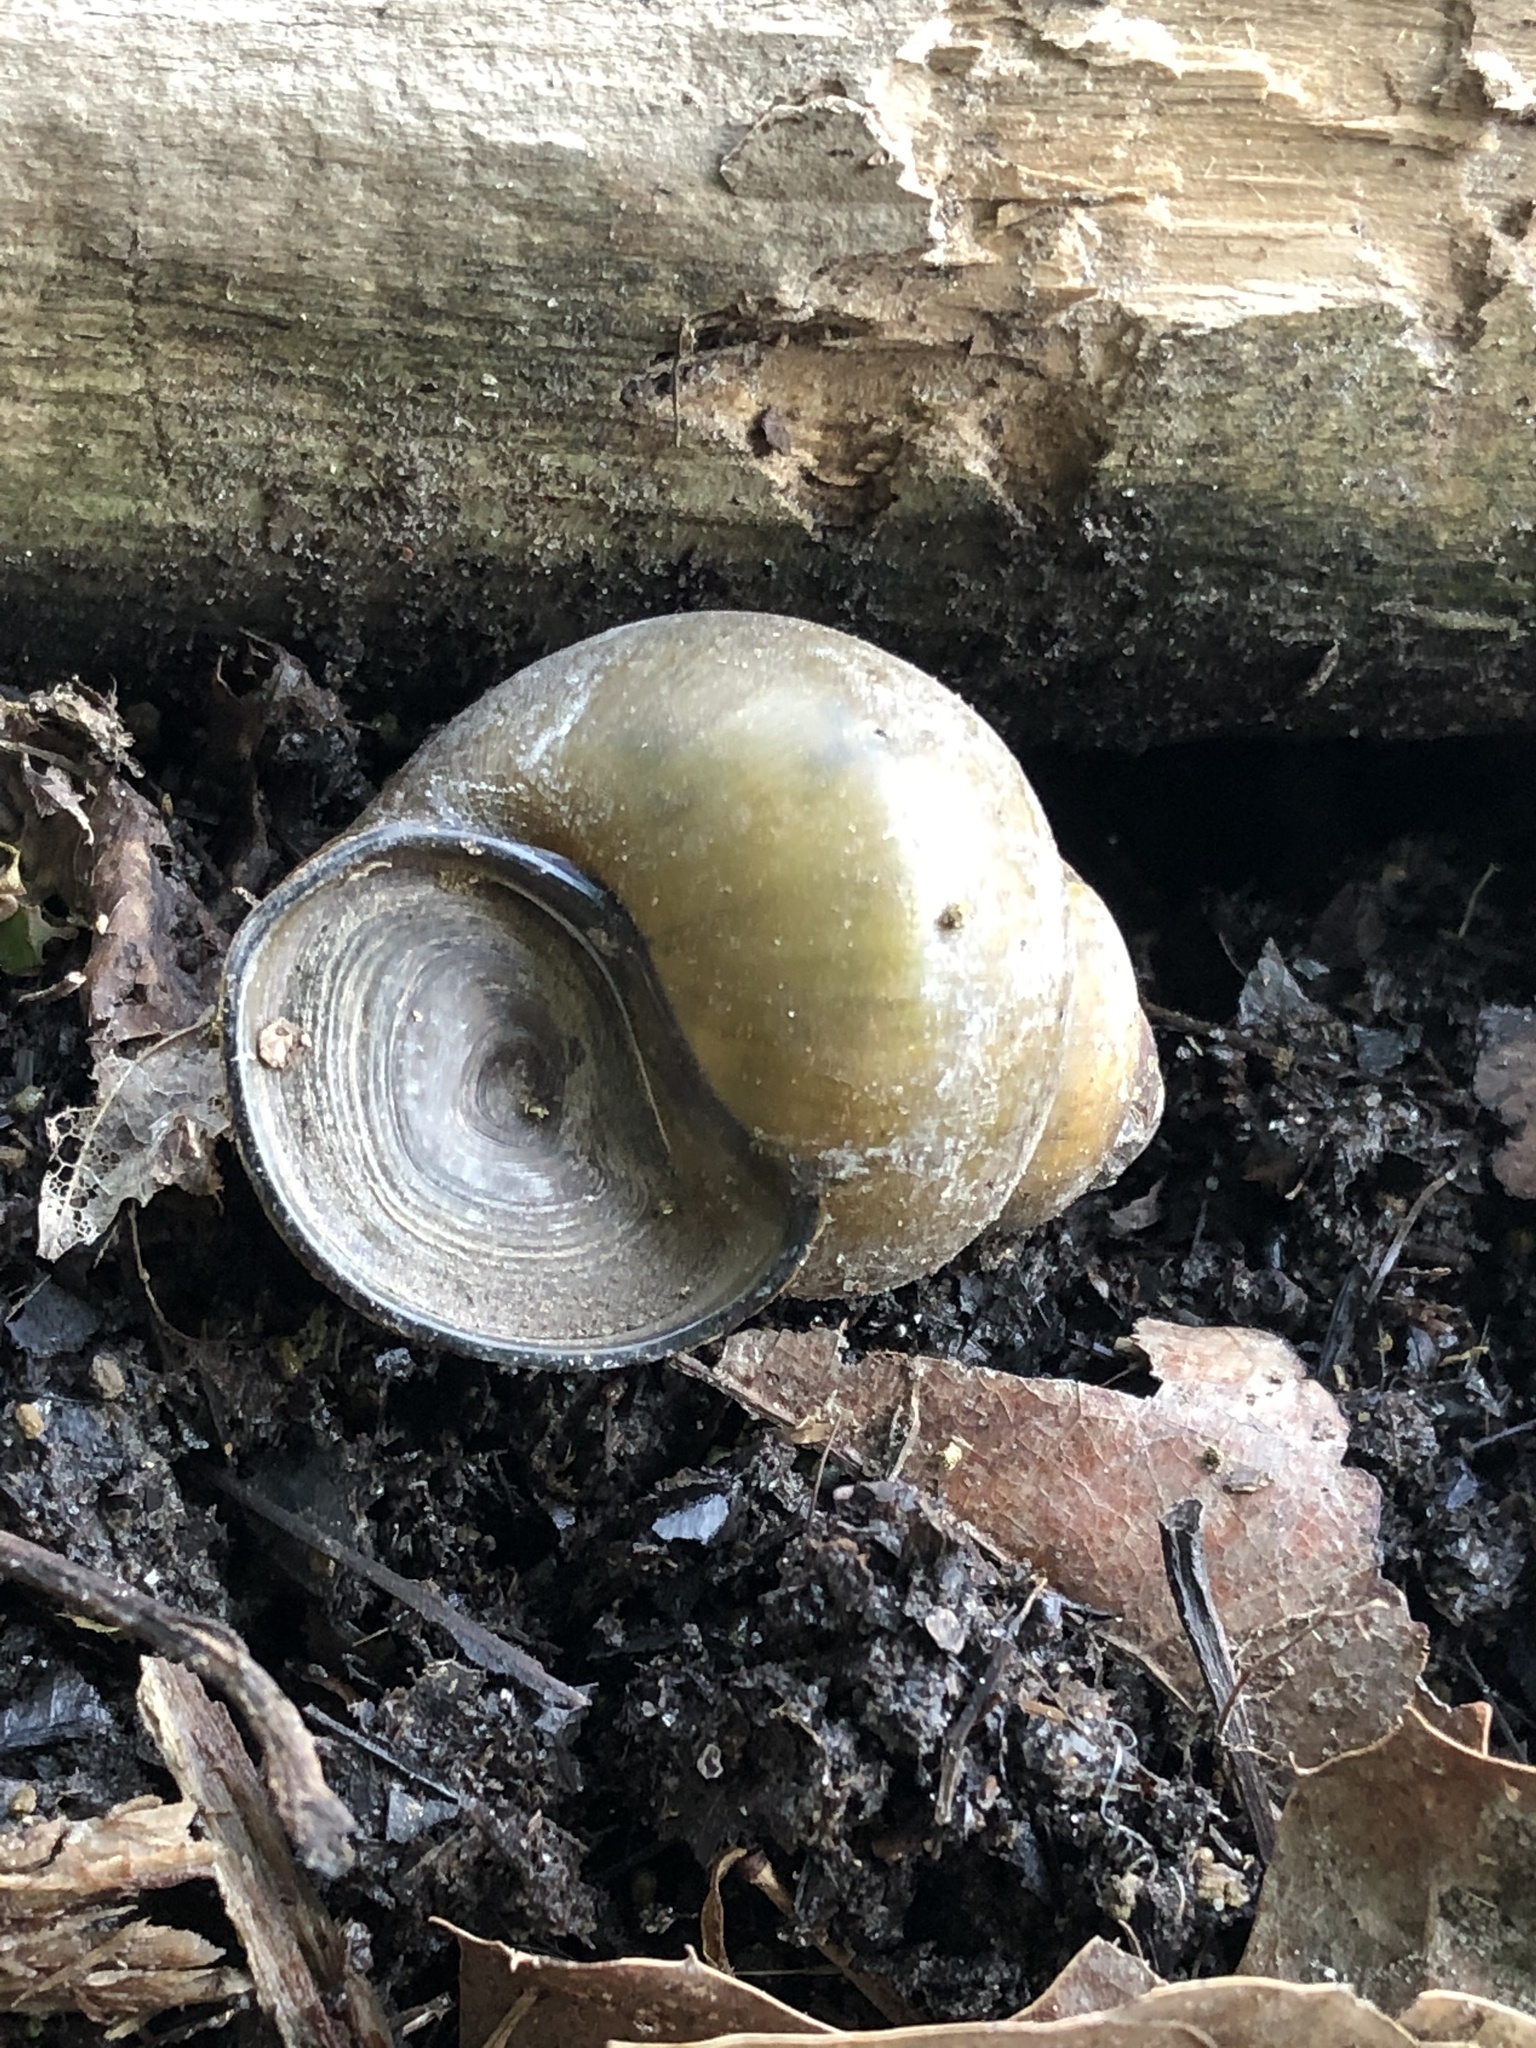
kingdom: Animalia
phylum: Mollusca
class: Gastropoda
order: Architaenioglossa
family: Viviparidae
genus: Cipangopaludina
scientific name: Cipangopaludina chinensis
